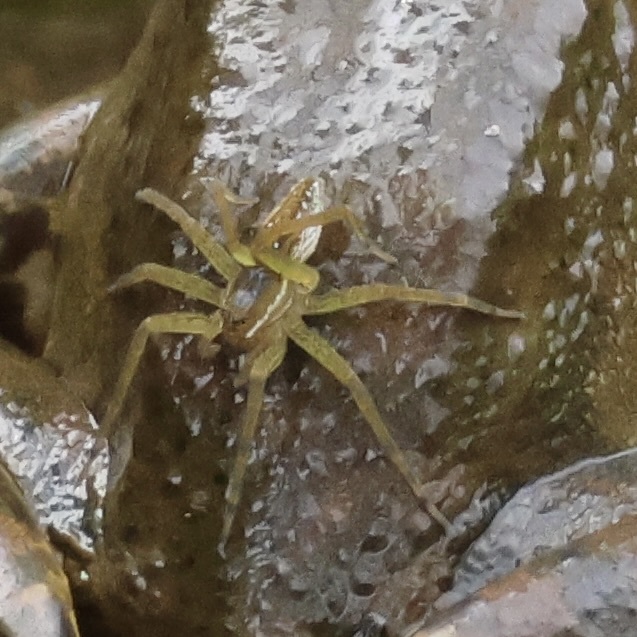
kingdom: Animalia
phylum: Arthropoda
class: Arachnida
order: Araneae
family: Pisauridae
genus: Dolomedes
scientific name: Dolomedes triton
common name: Six-spotted fishing spider
